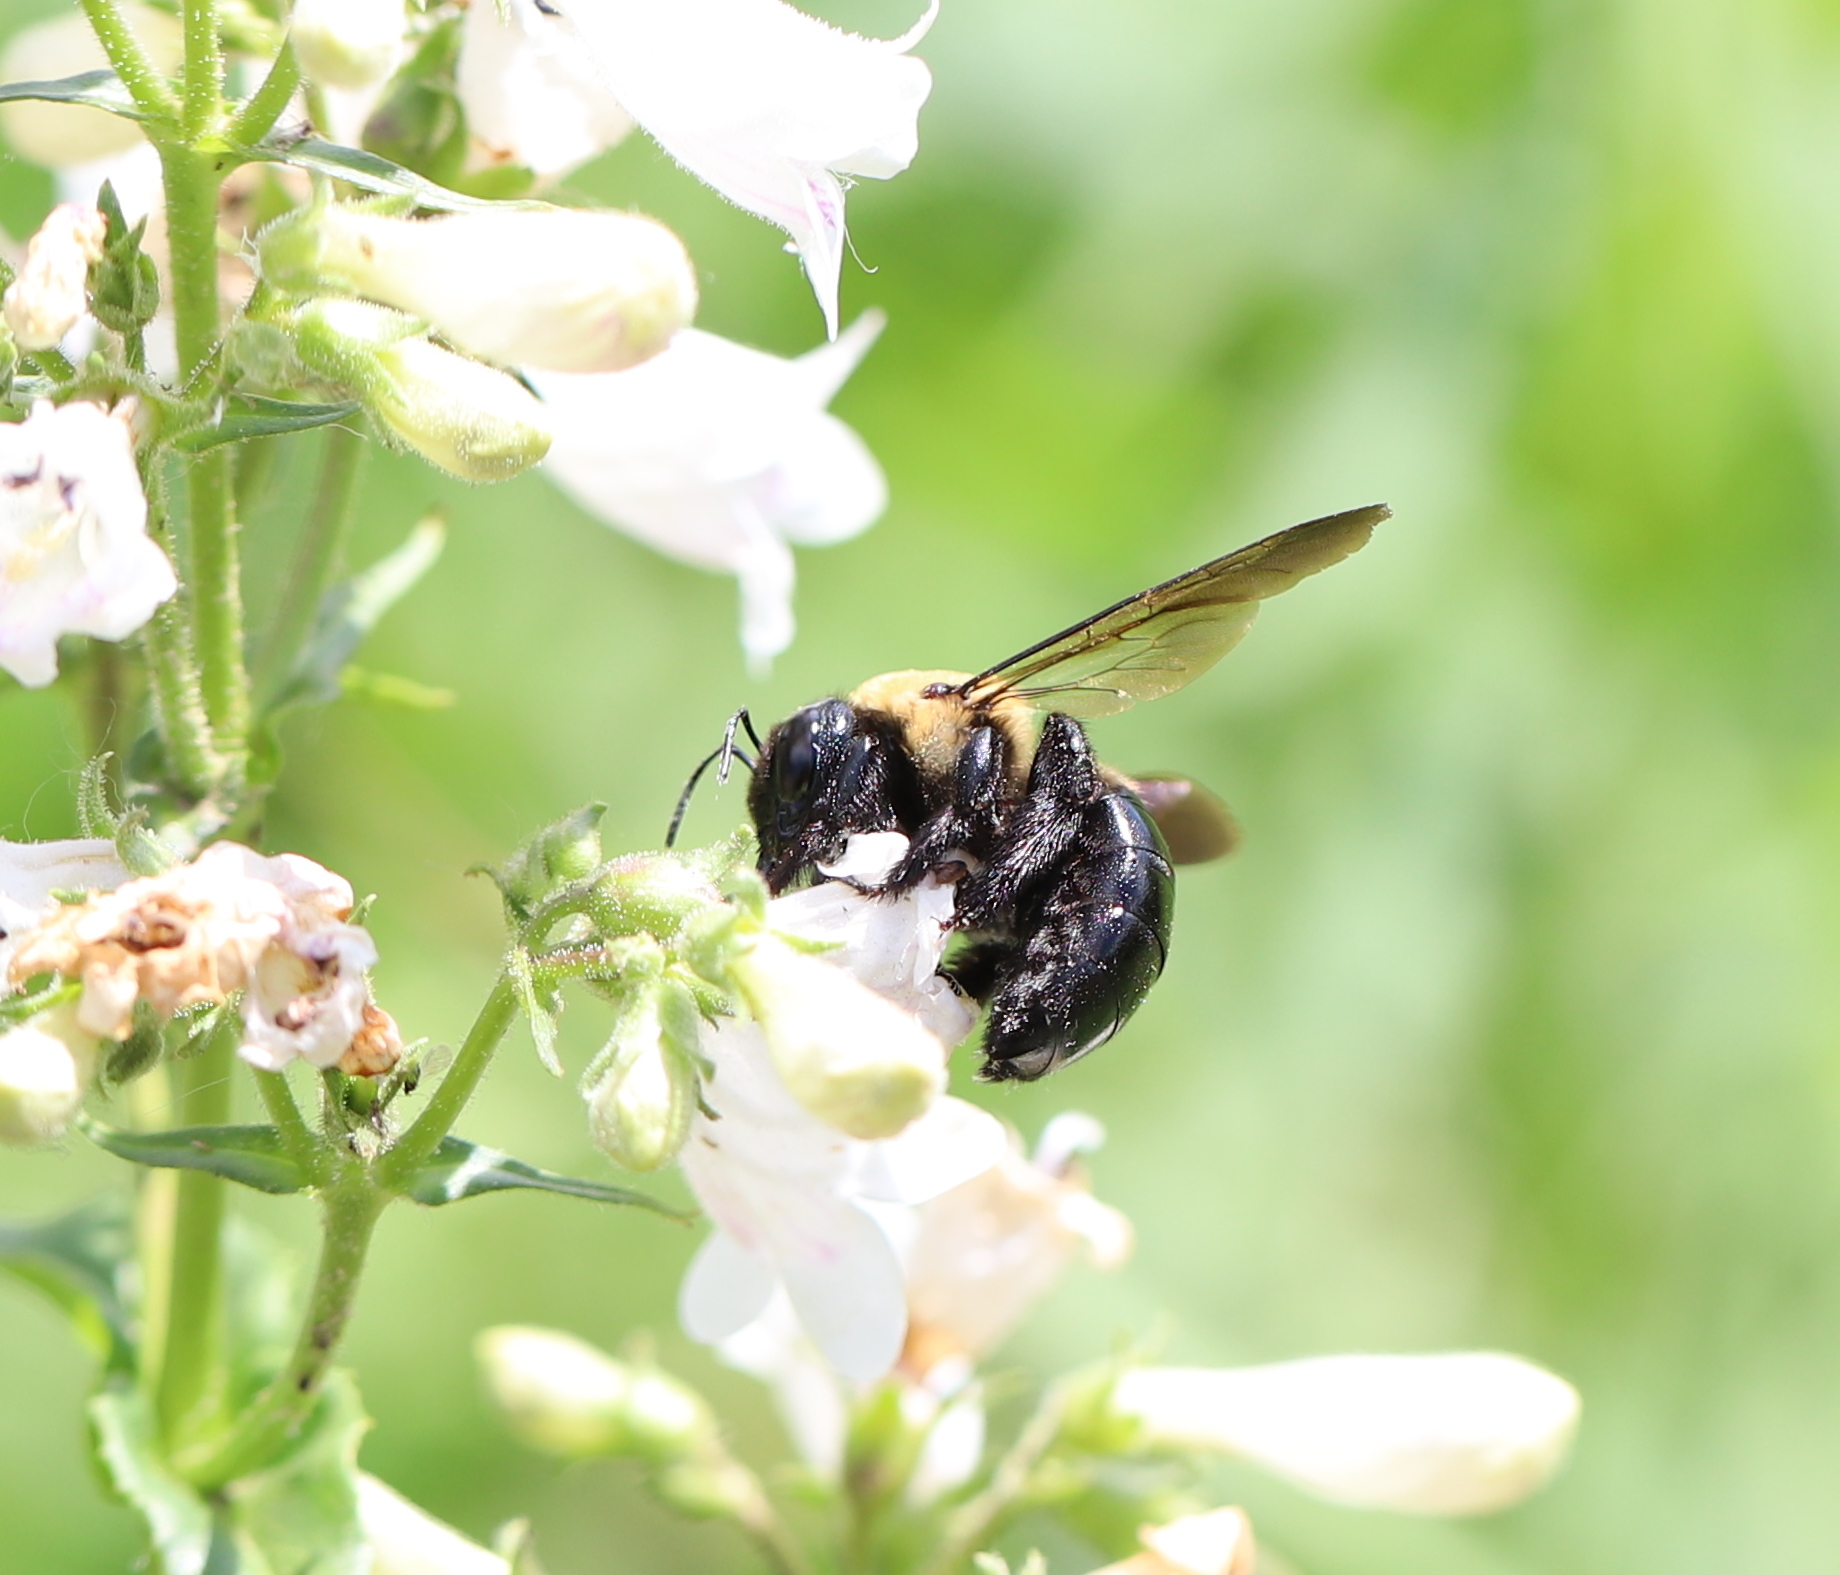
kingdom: Animalia
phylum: Arthropoda
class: Insecta
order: Hymenoptera
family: Apidae
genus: Xylocopa
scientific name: Xylocopa virginica
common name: Carpenter bee
